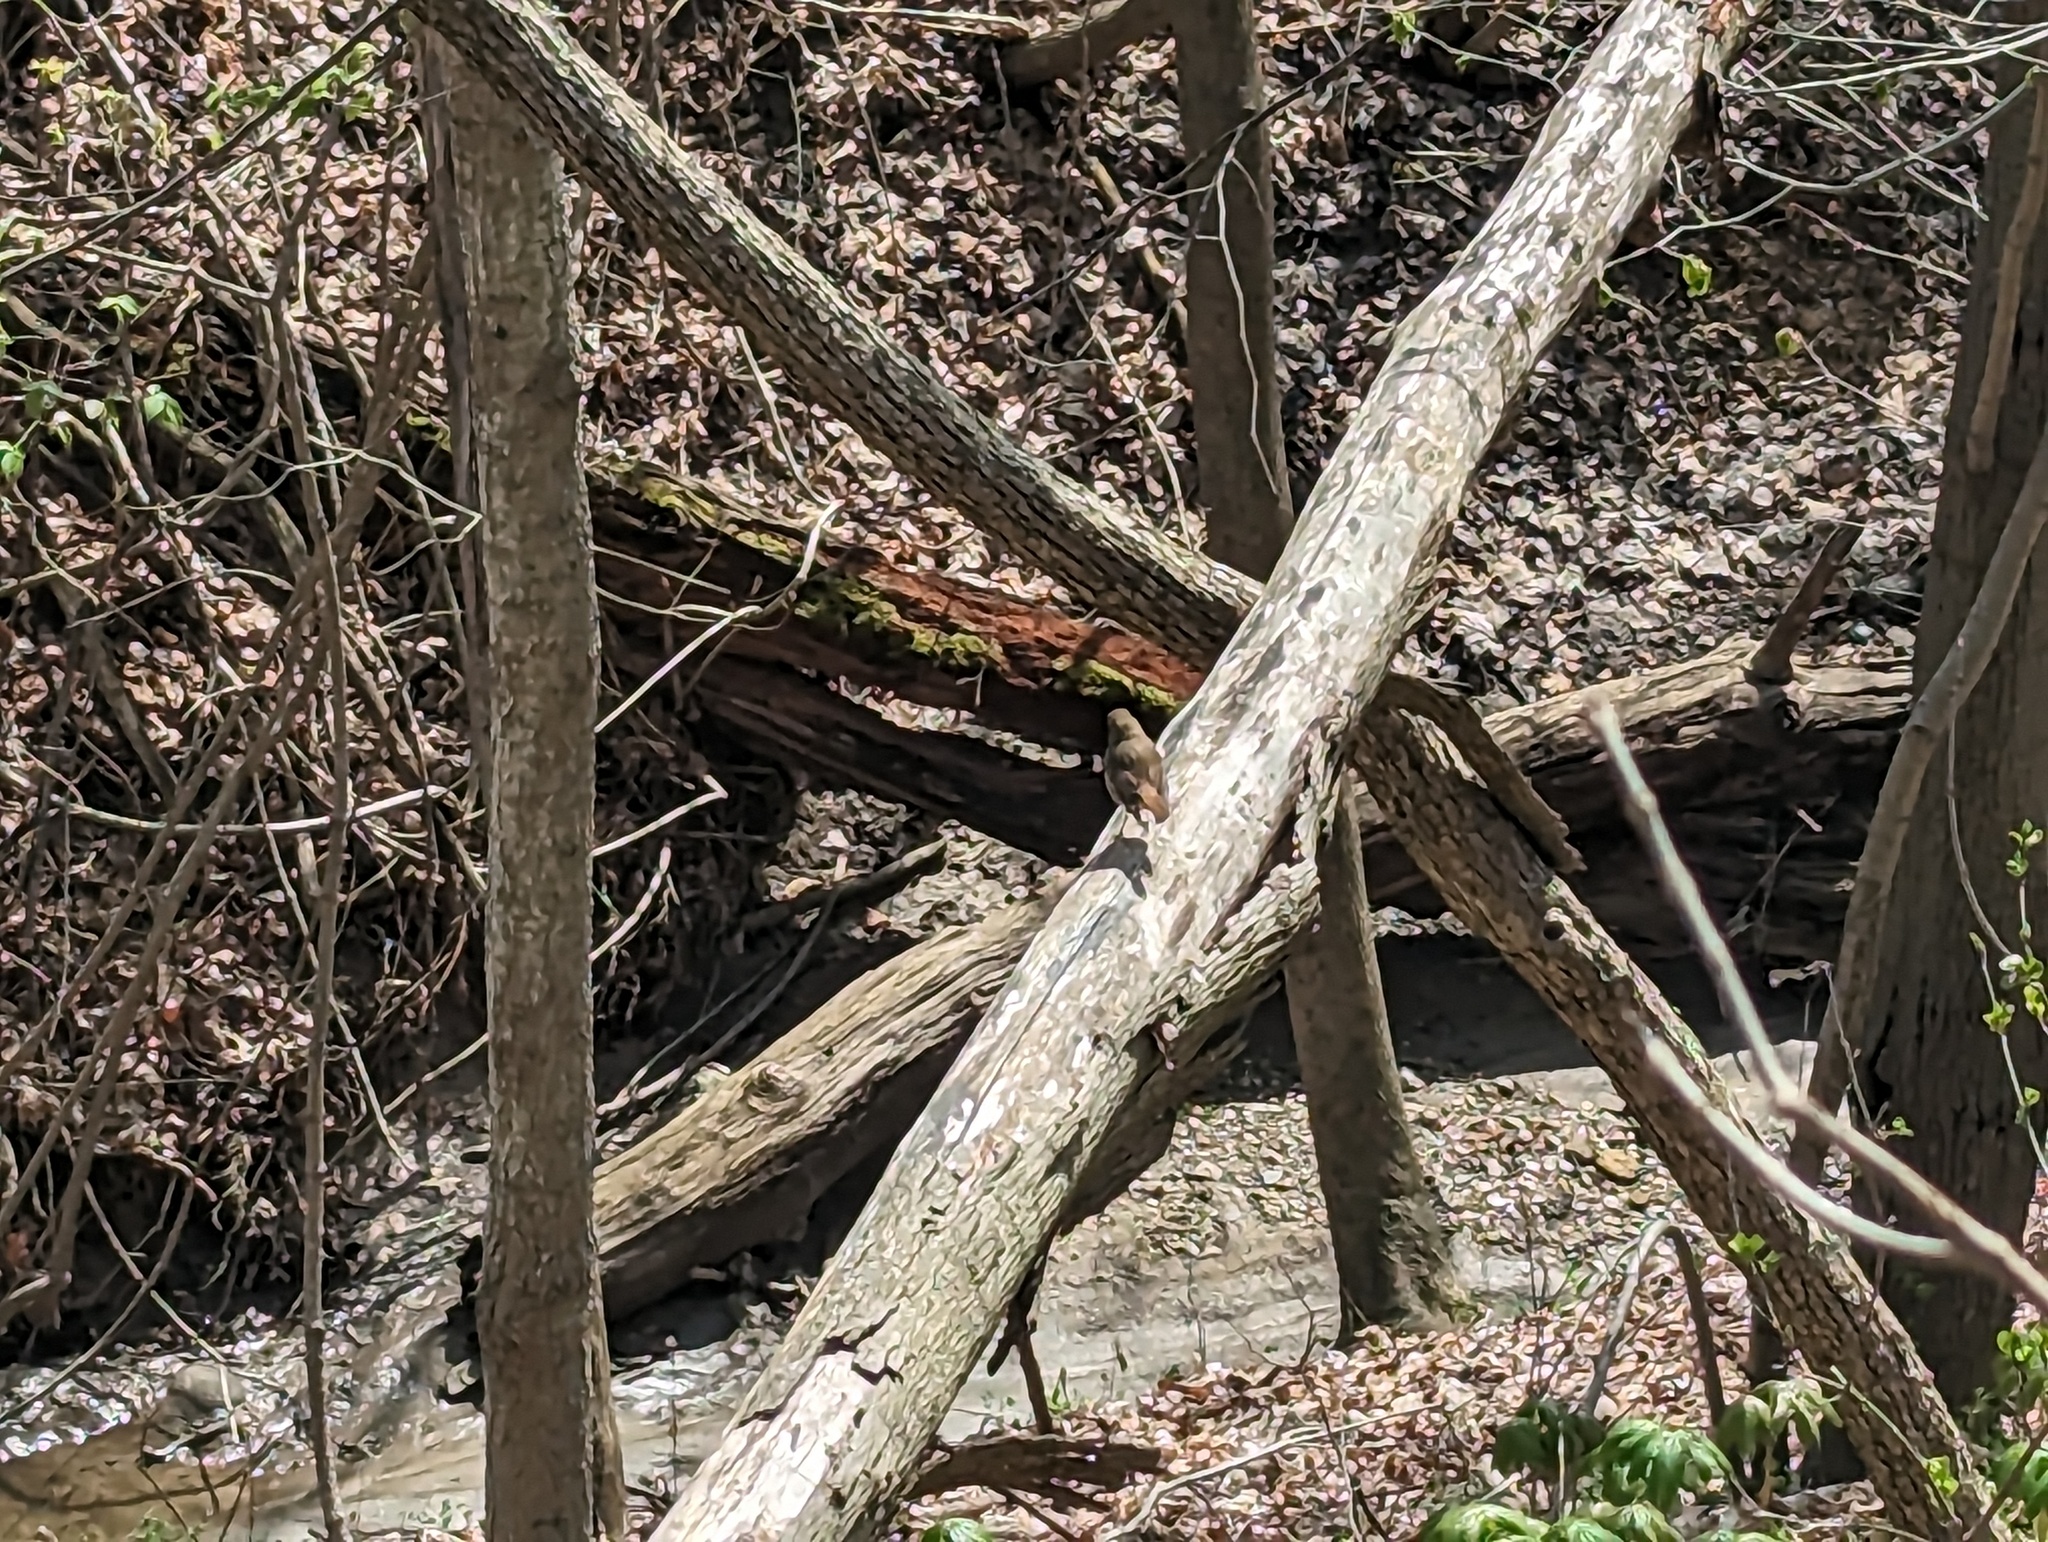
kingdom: Animalia
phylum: Chordata
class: Aves
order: Passeriformes
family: Turdidae
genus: Catharus
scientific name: Catharus guttatus
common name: Hermit thrush
